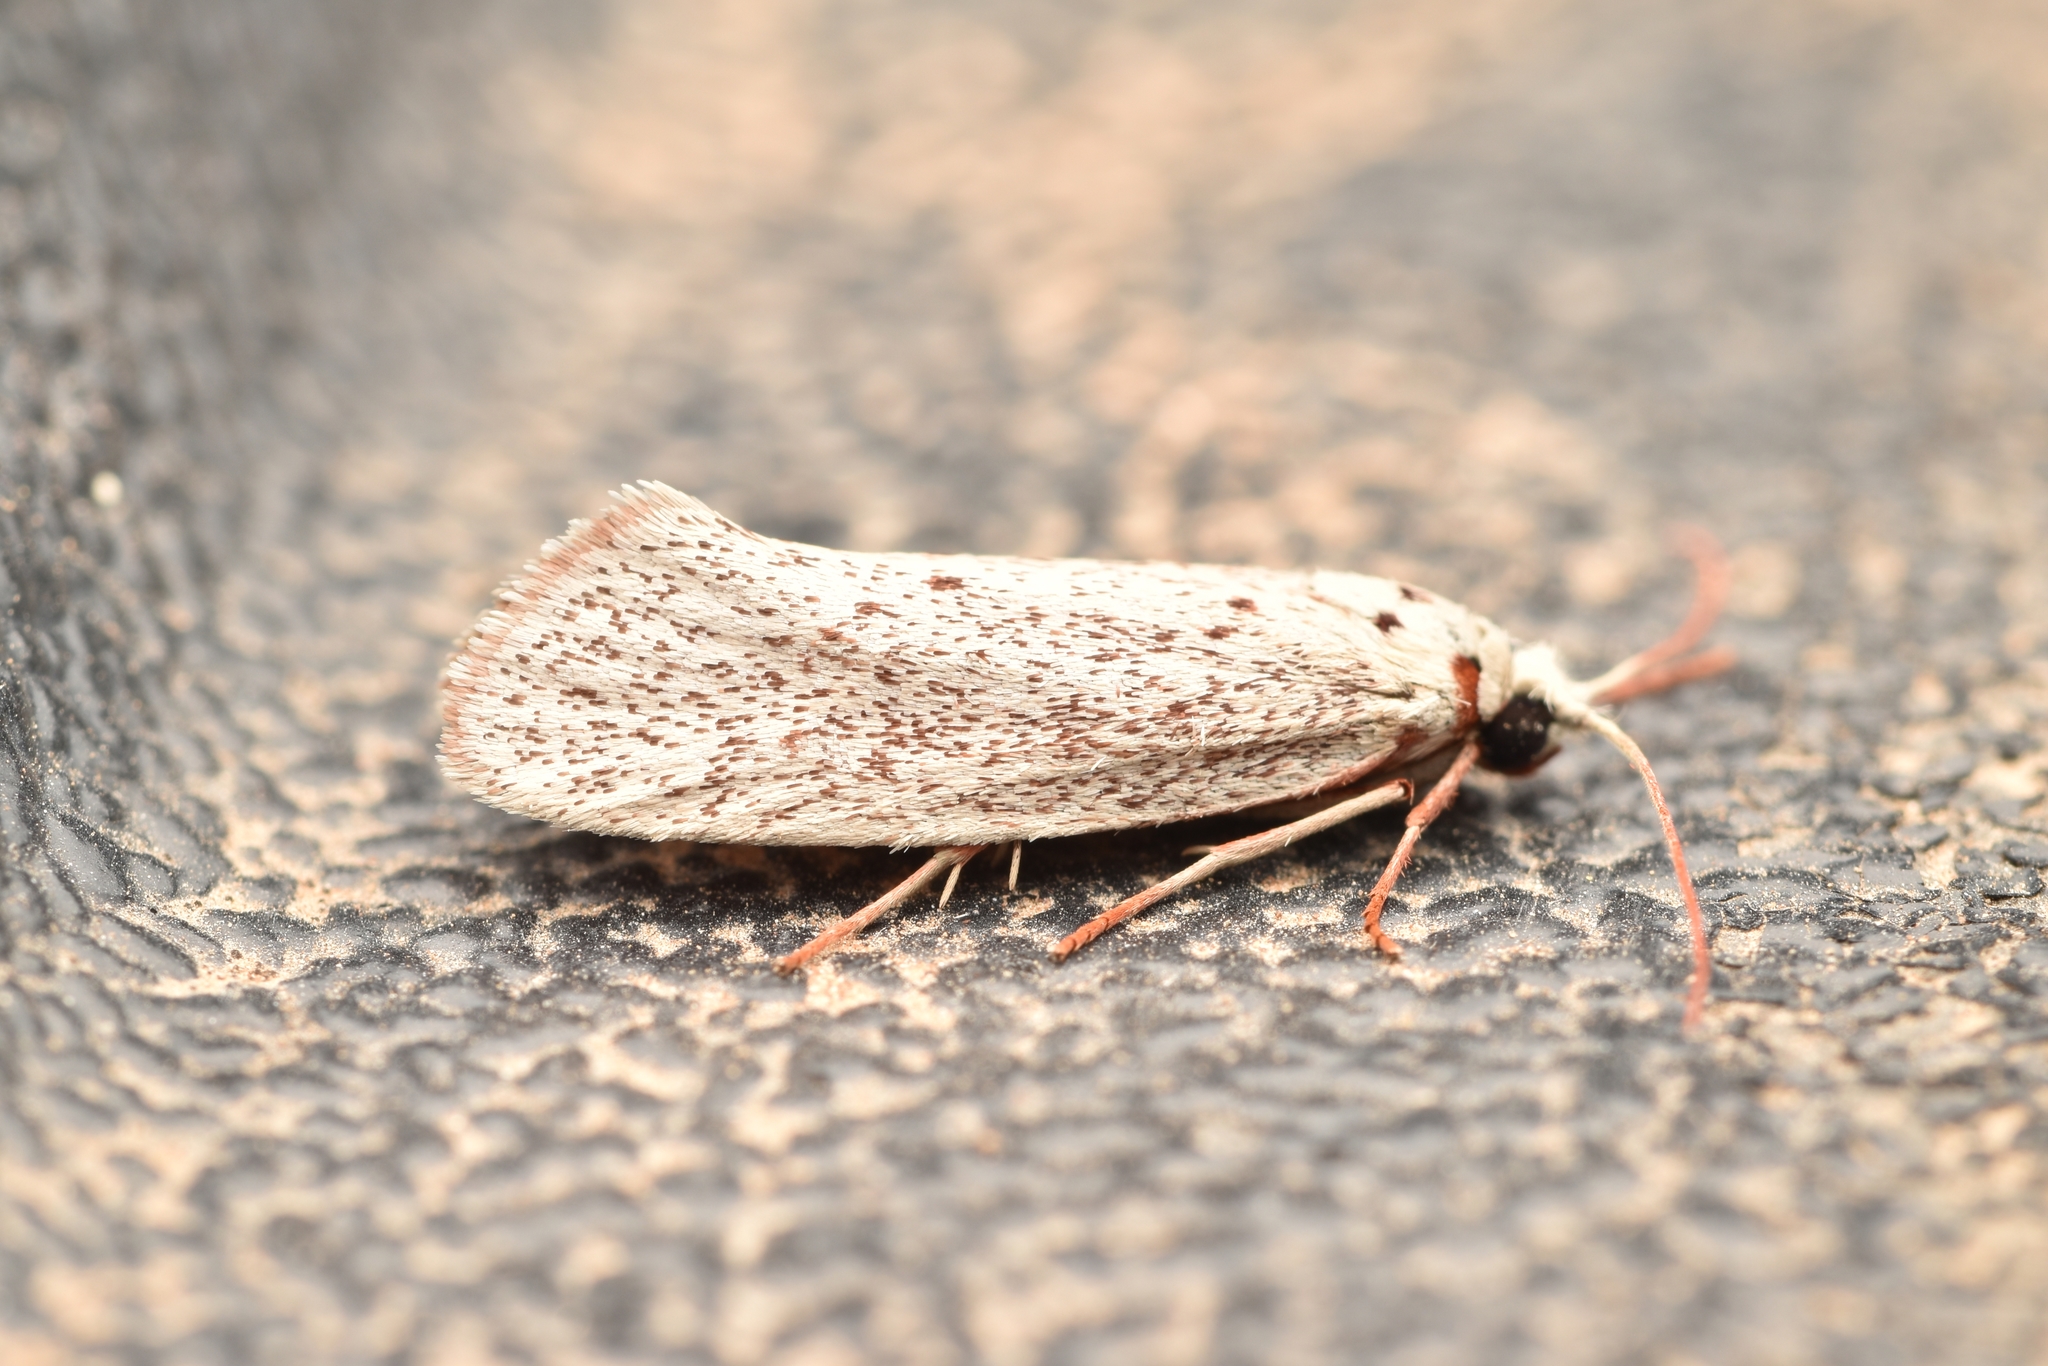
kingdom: Animalia
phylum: Arthropoda
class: Insecta
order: Lepidoptera
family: Lacturidae
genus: Lactura
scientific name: Lactura
